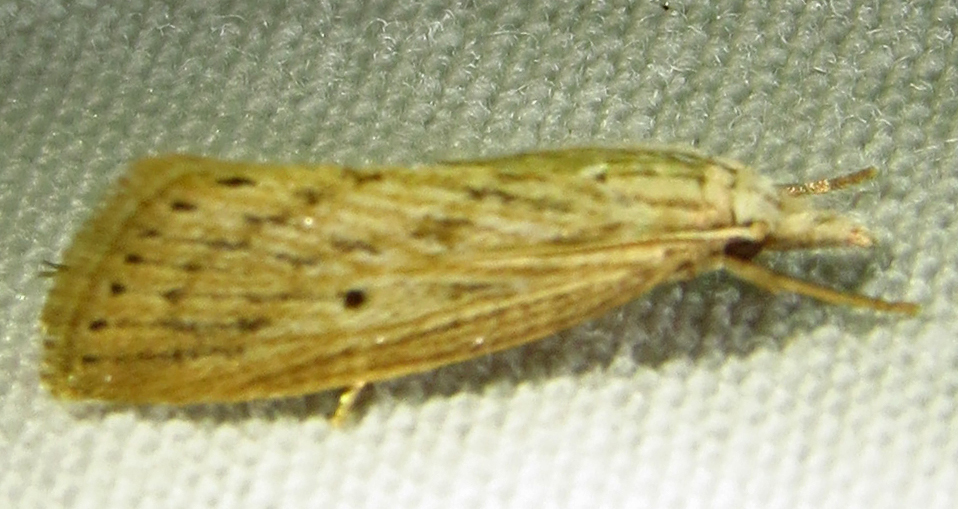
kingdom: Animalia
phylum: Arthropoda
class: Insecta
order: Lepidoptera
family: Crambidae
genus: Diatraea
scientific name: Diatraea lisetta
